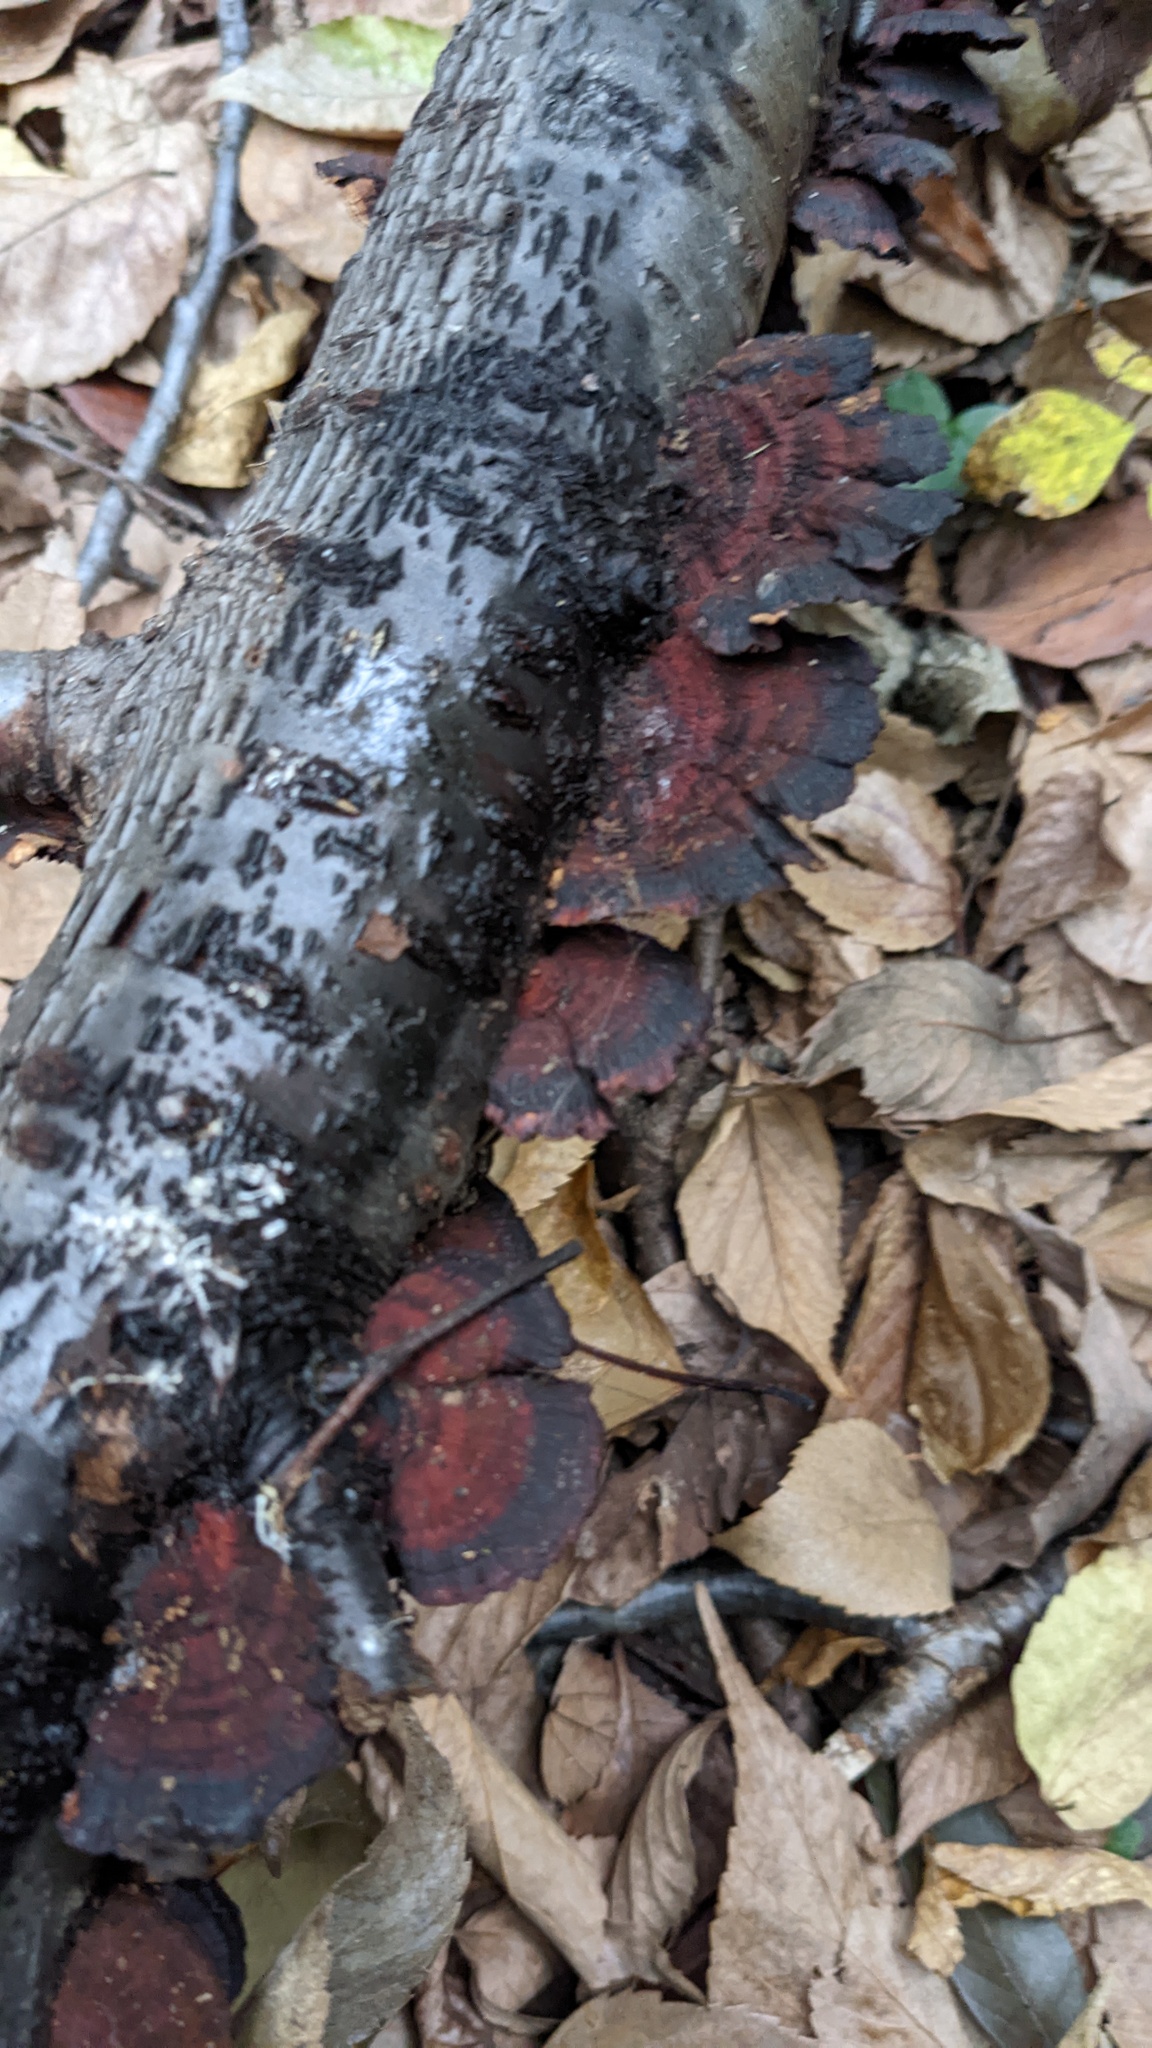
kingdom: Fungi
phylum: Basidiomycota
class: Agaricomycetes
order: Polyporales
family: Polyporaceae
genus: Daedaleopsis
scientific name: Daedaleopsis tricolor
